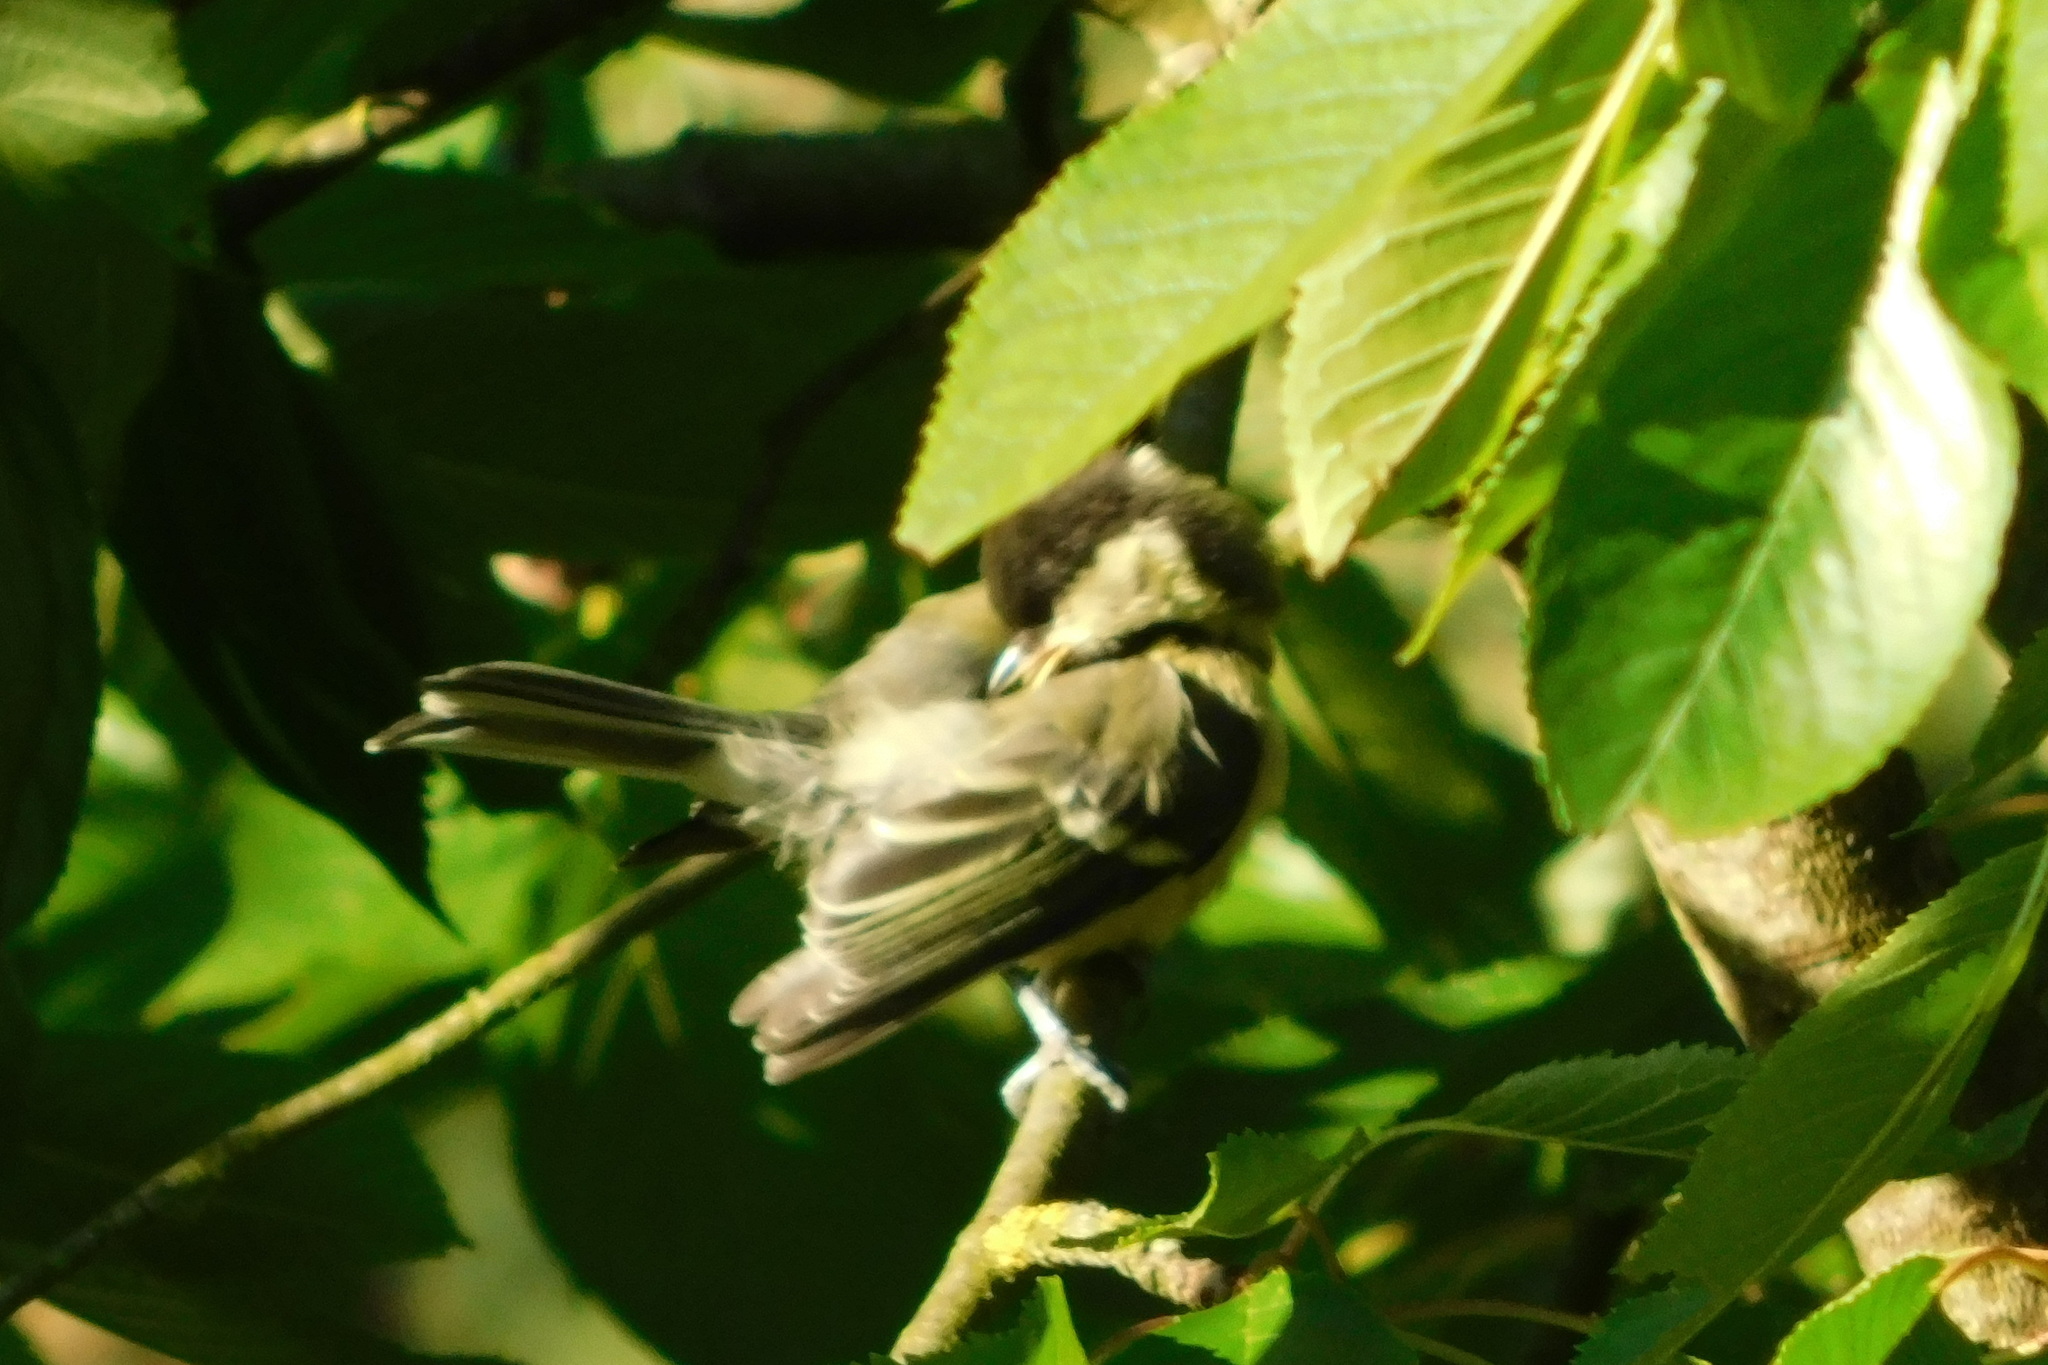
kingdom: Animalia
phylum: Chordata
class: Aves
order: Passeriformes
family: Paridae
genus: Parus
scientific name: Parus major
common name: Great tit
